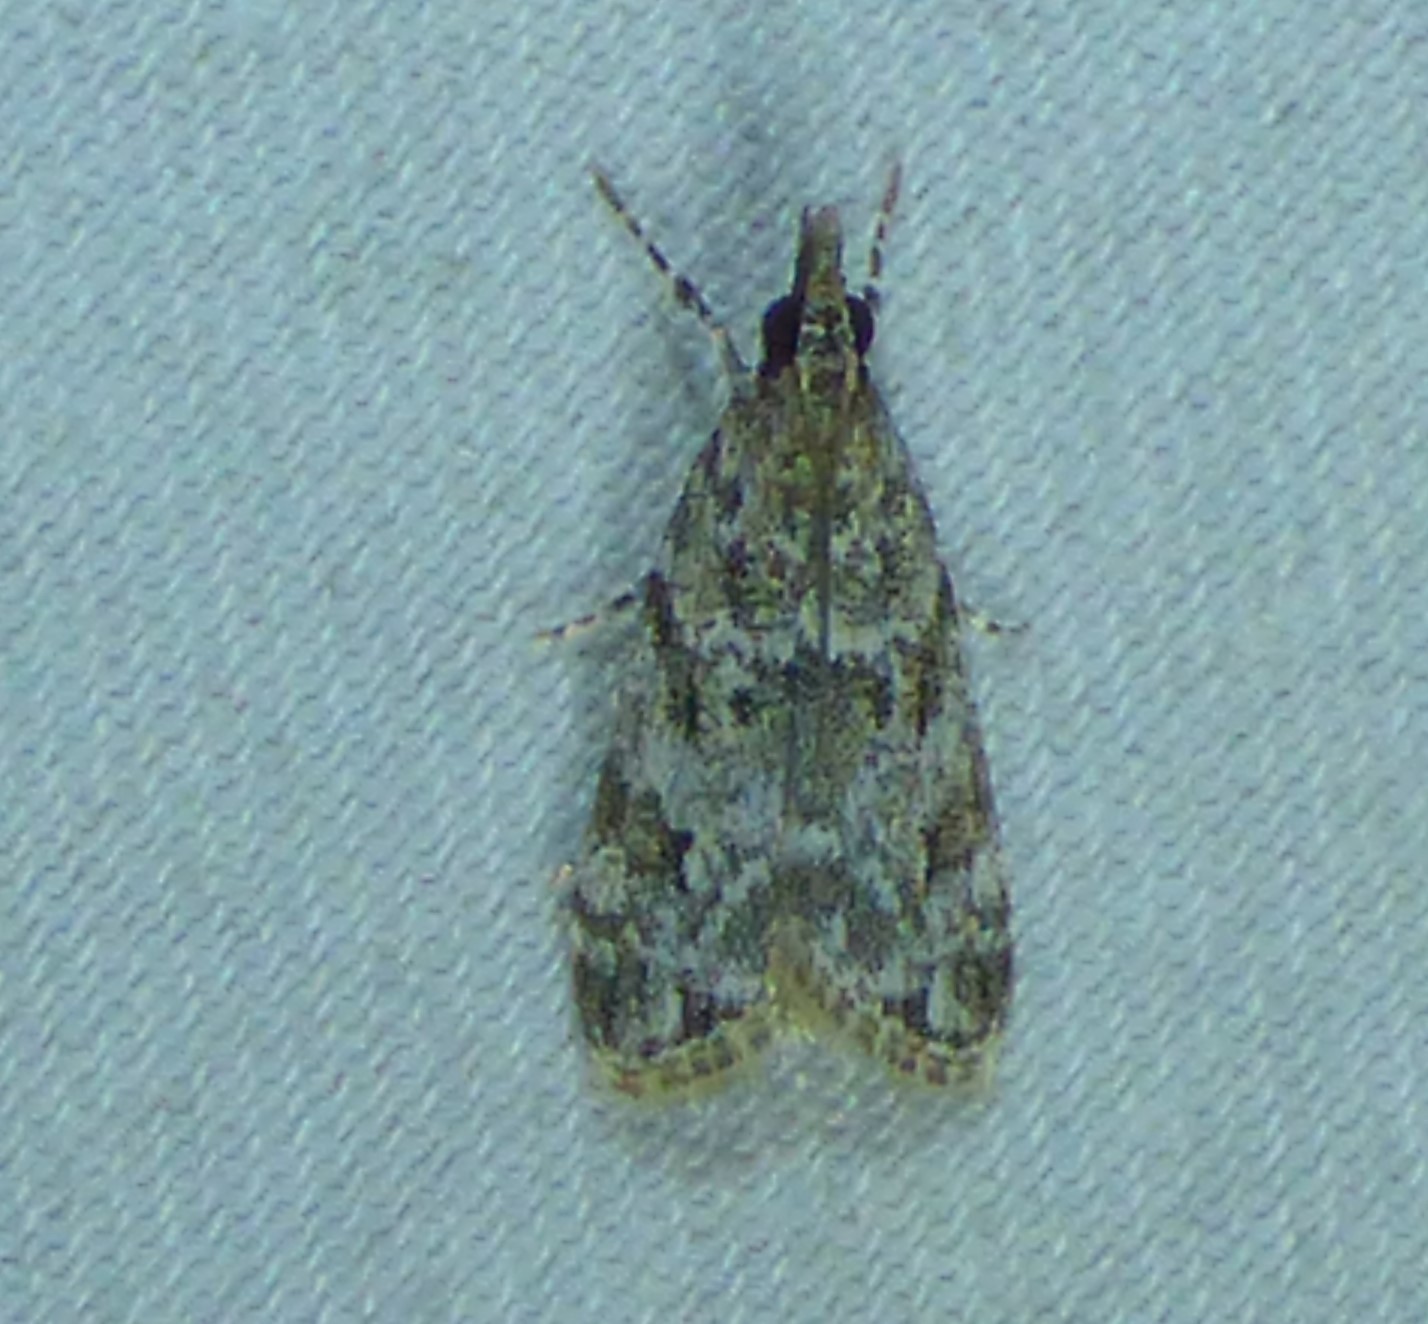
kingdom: Animalia
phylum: Arthropoda
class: Insecta
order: Lepidoptera
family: Crambidae
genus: Eudonia
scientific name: Eudonia heterosalis
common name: Mcdunnough's eudonia
